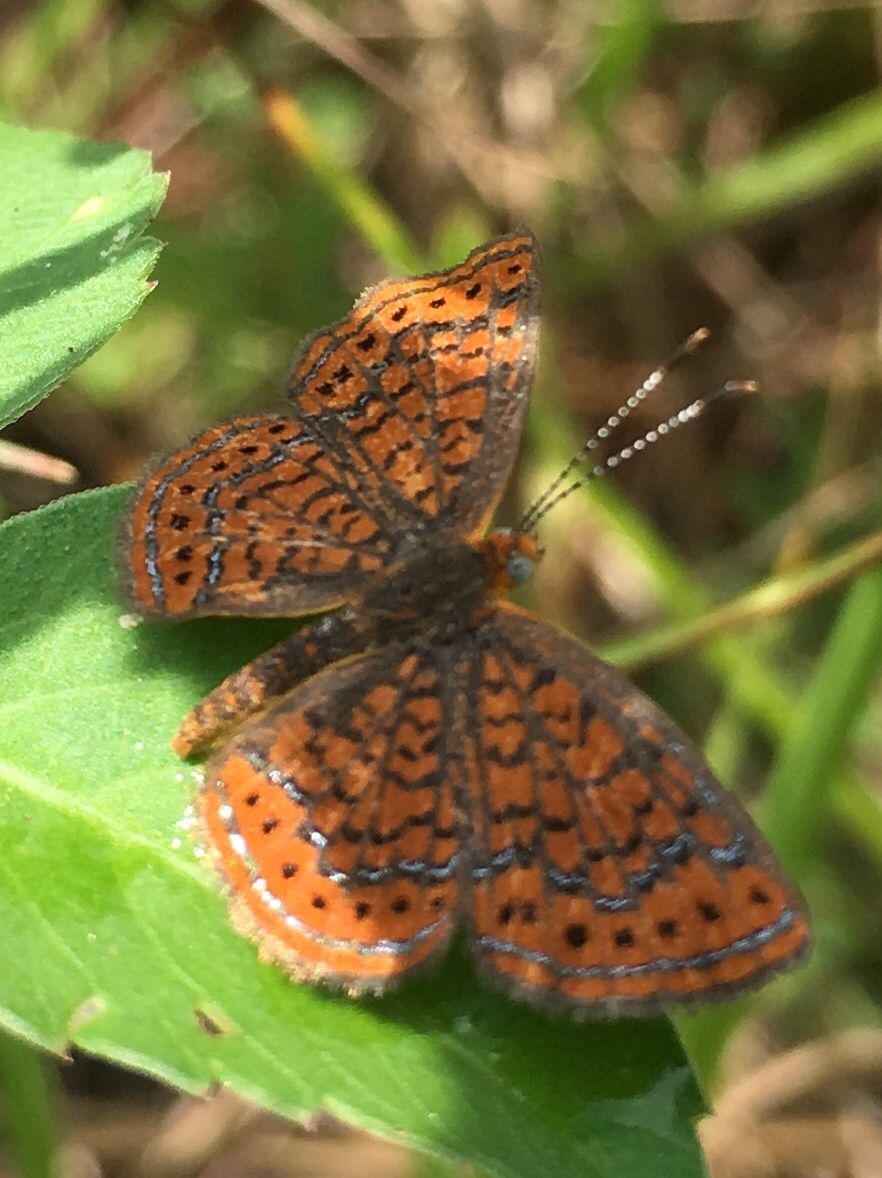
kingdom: Animalia
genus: Calephelis
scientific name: Calephelis virginiensis
